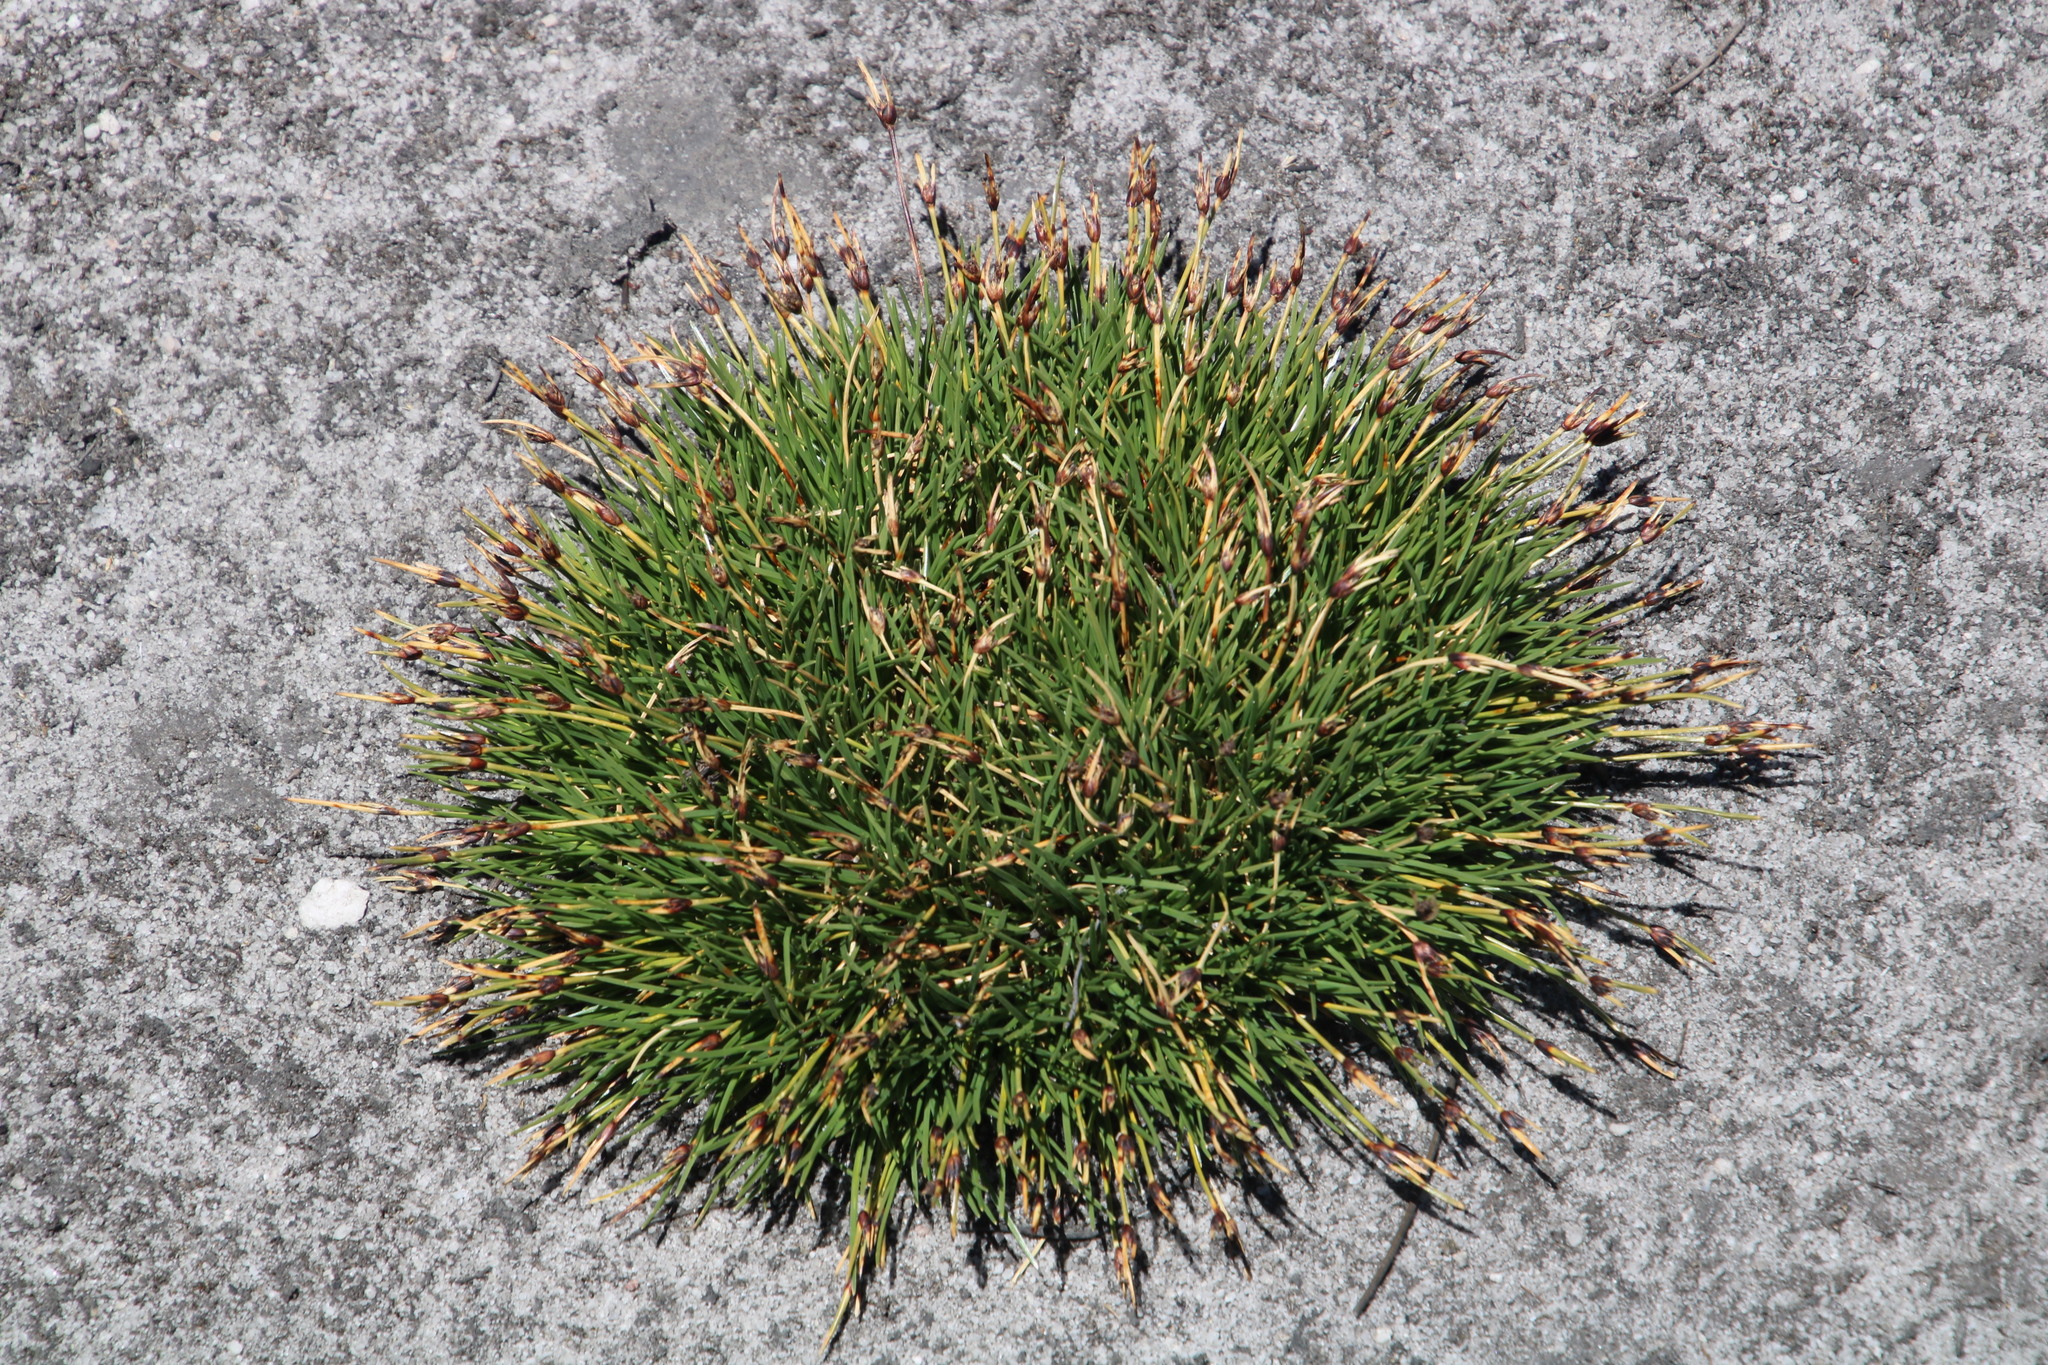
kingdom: Plantae
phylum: Tracheophyta
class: Liliopsida
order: Poales
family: Cyperaceae
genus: Ficinia
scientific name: Ficinia montana
